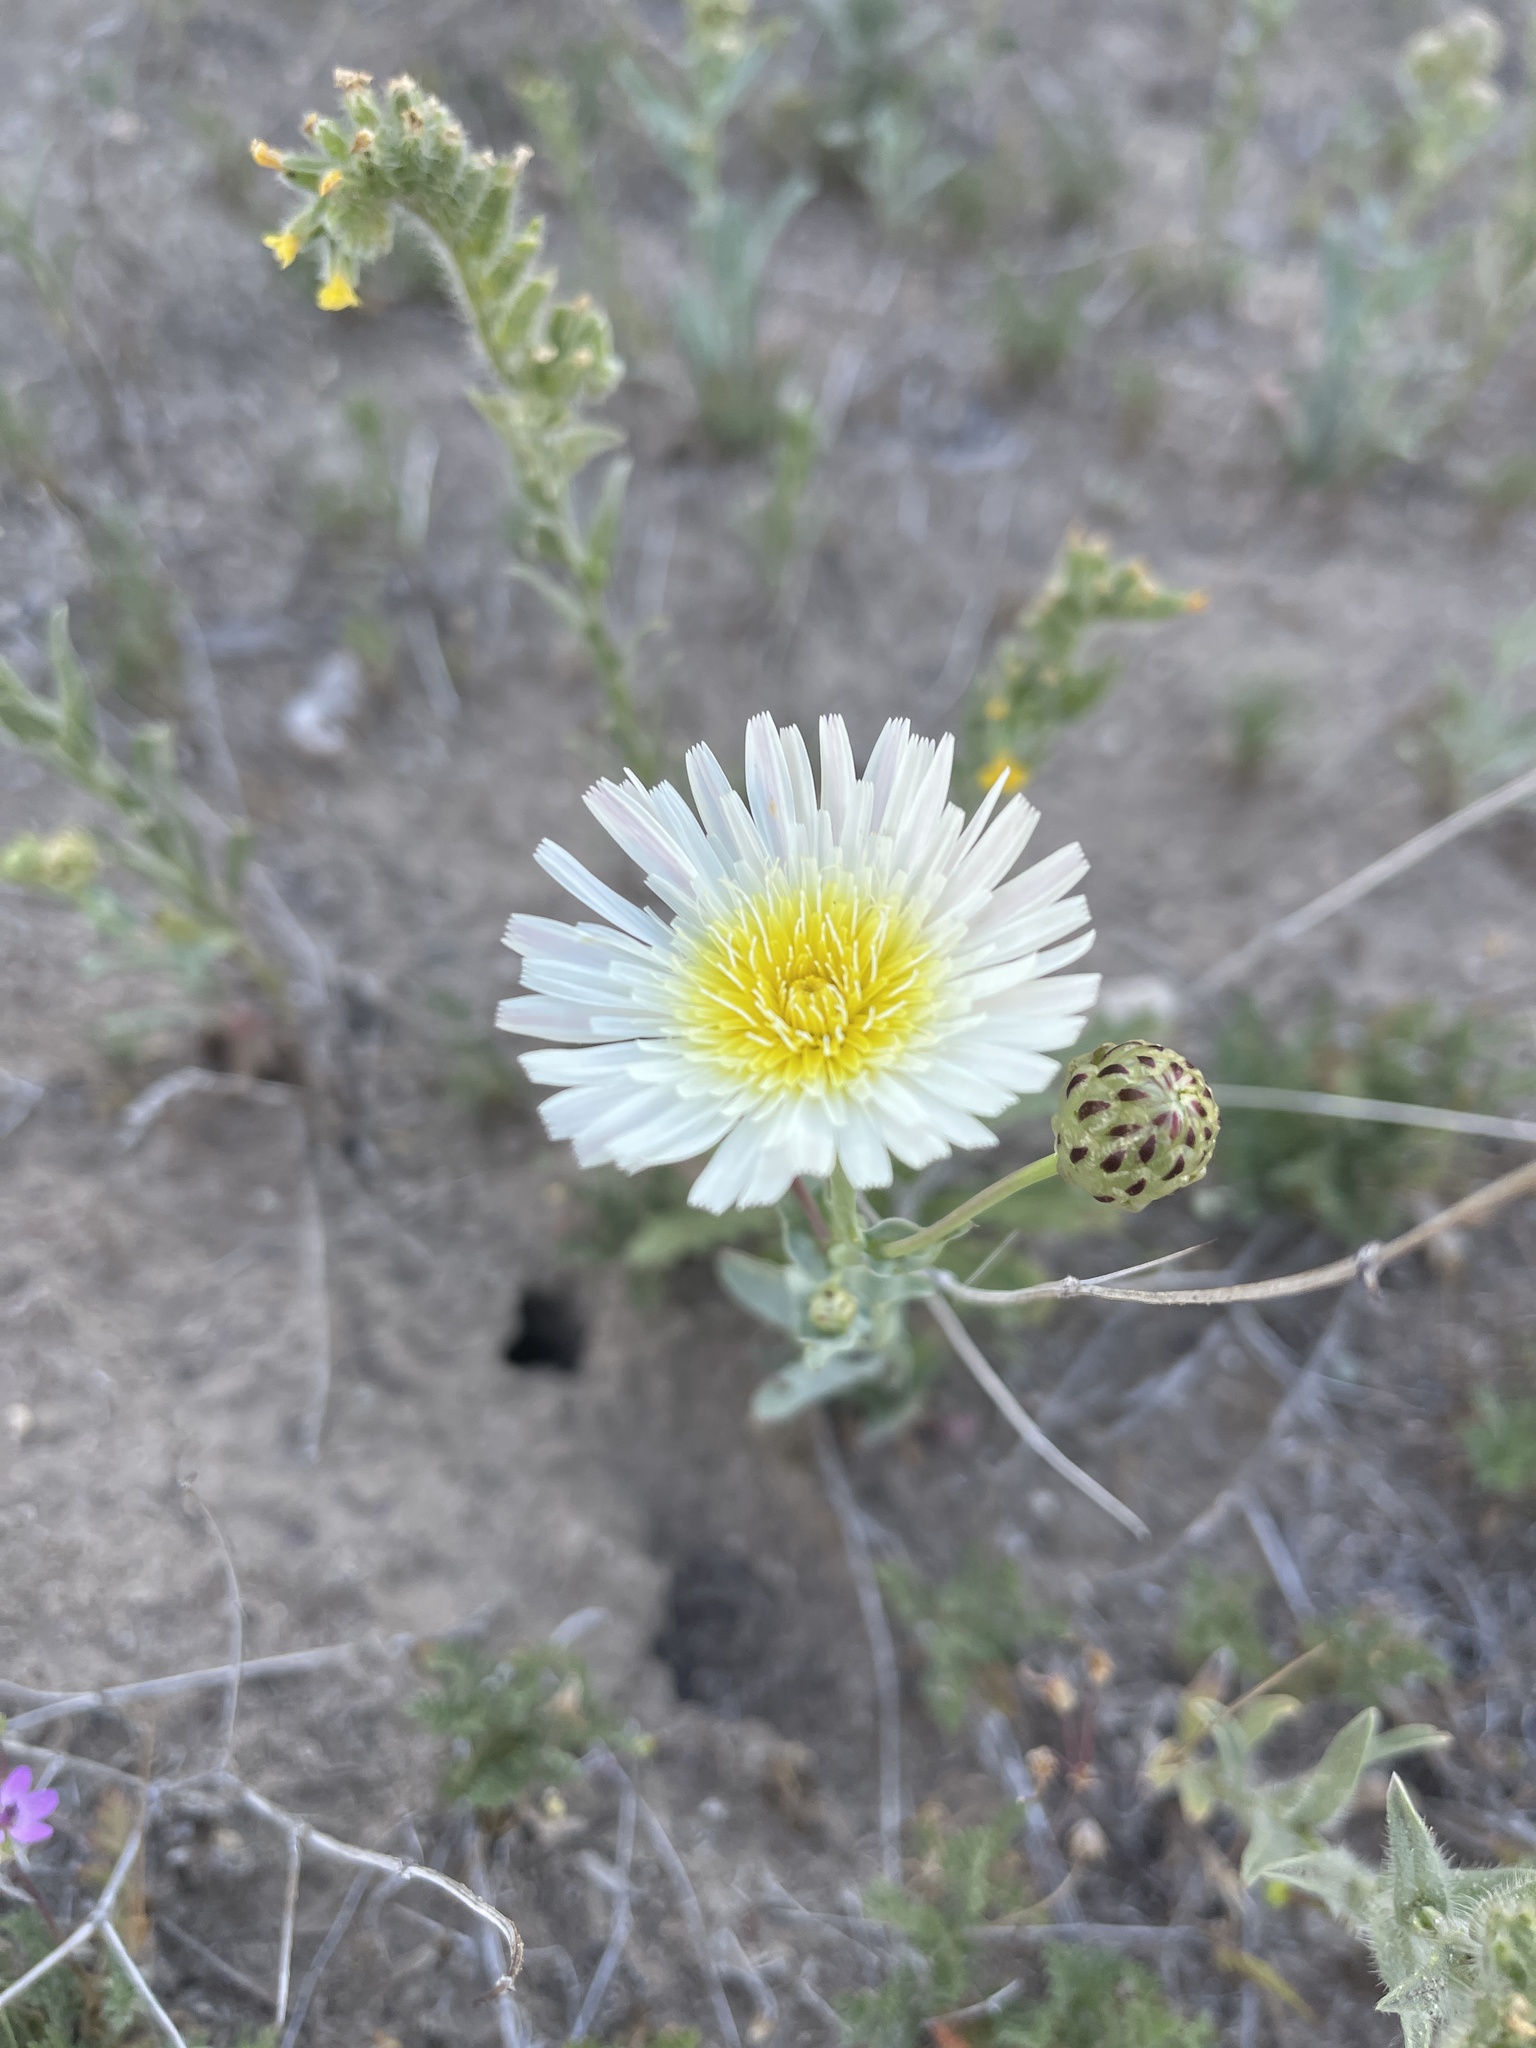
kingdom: Plantae
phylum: Tracheophyta
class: Magnoliopsida
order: Asterales
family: Asteraceae
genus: Malacothrix
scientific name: Malacothrix coulteri
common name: Snake's-head
